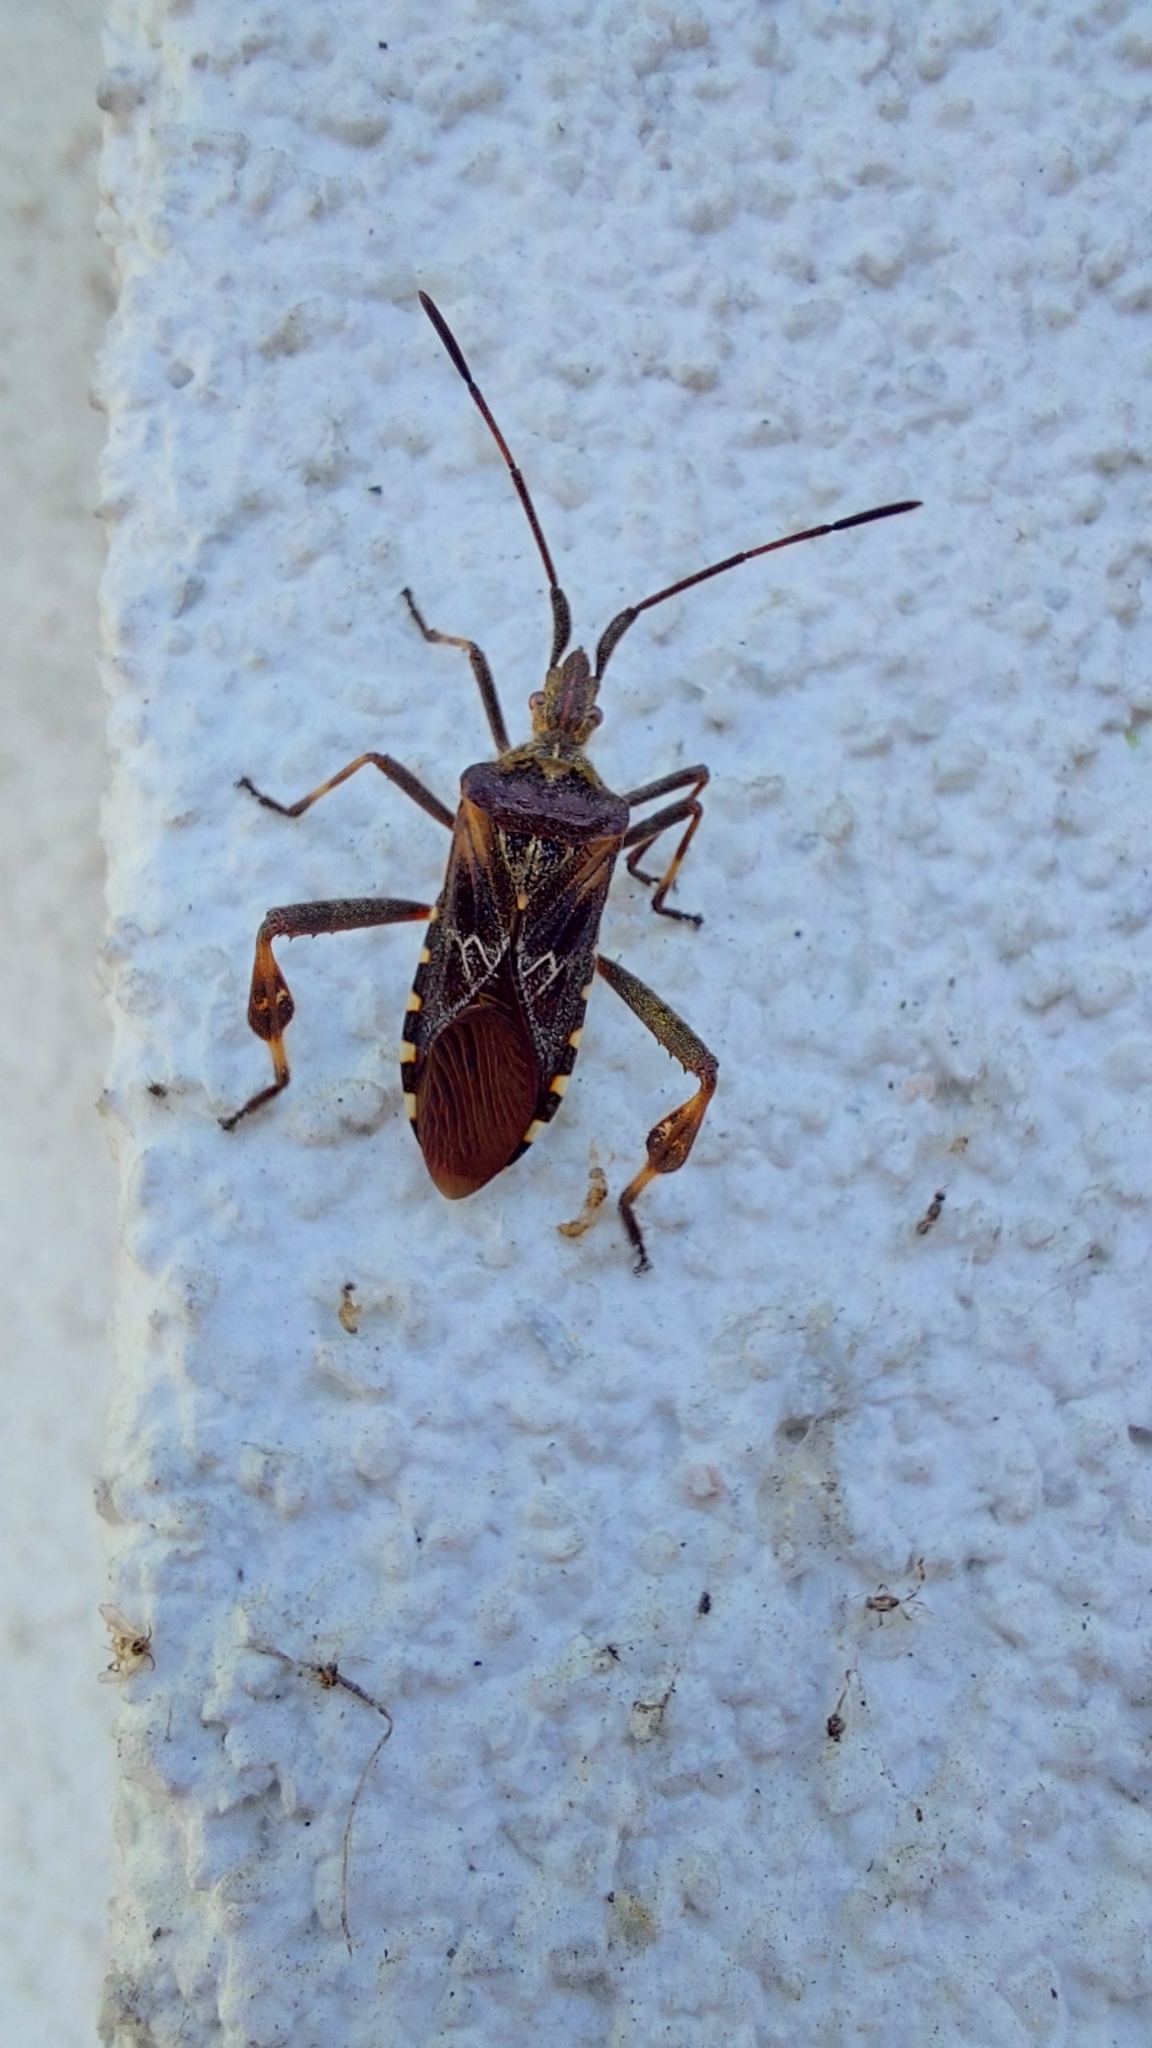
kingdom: Animalia
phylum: Arthropoda
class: Insecta
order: Hemiptera
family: Coreidae
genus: Leptoglossus
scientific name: Leptoglossus occidentalis
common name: Western conifer-seed bug
